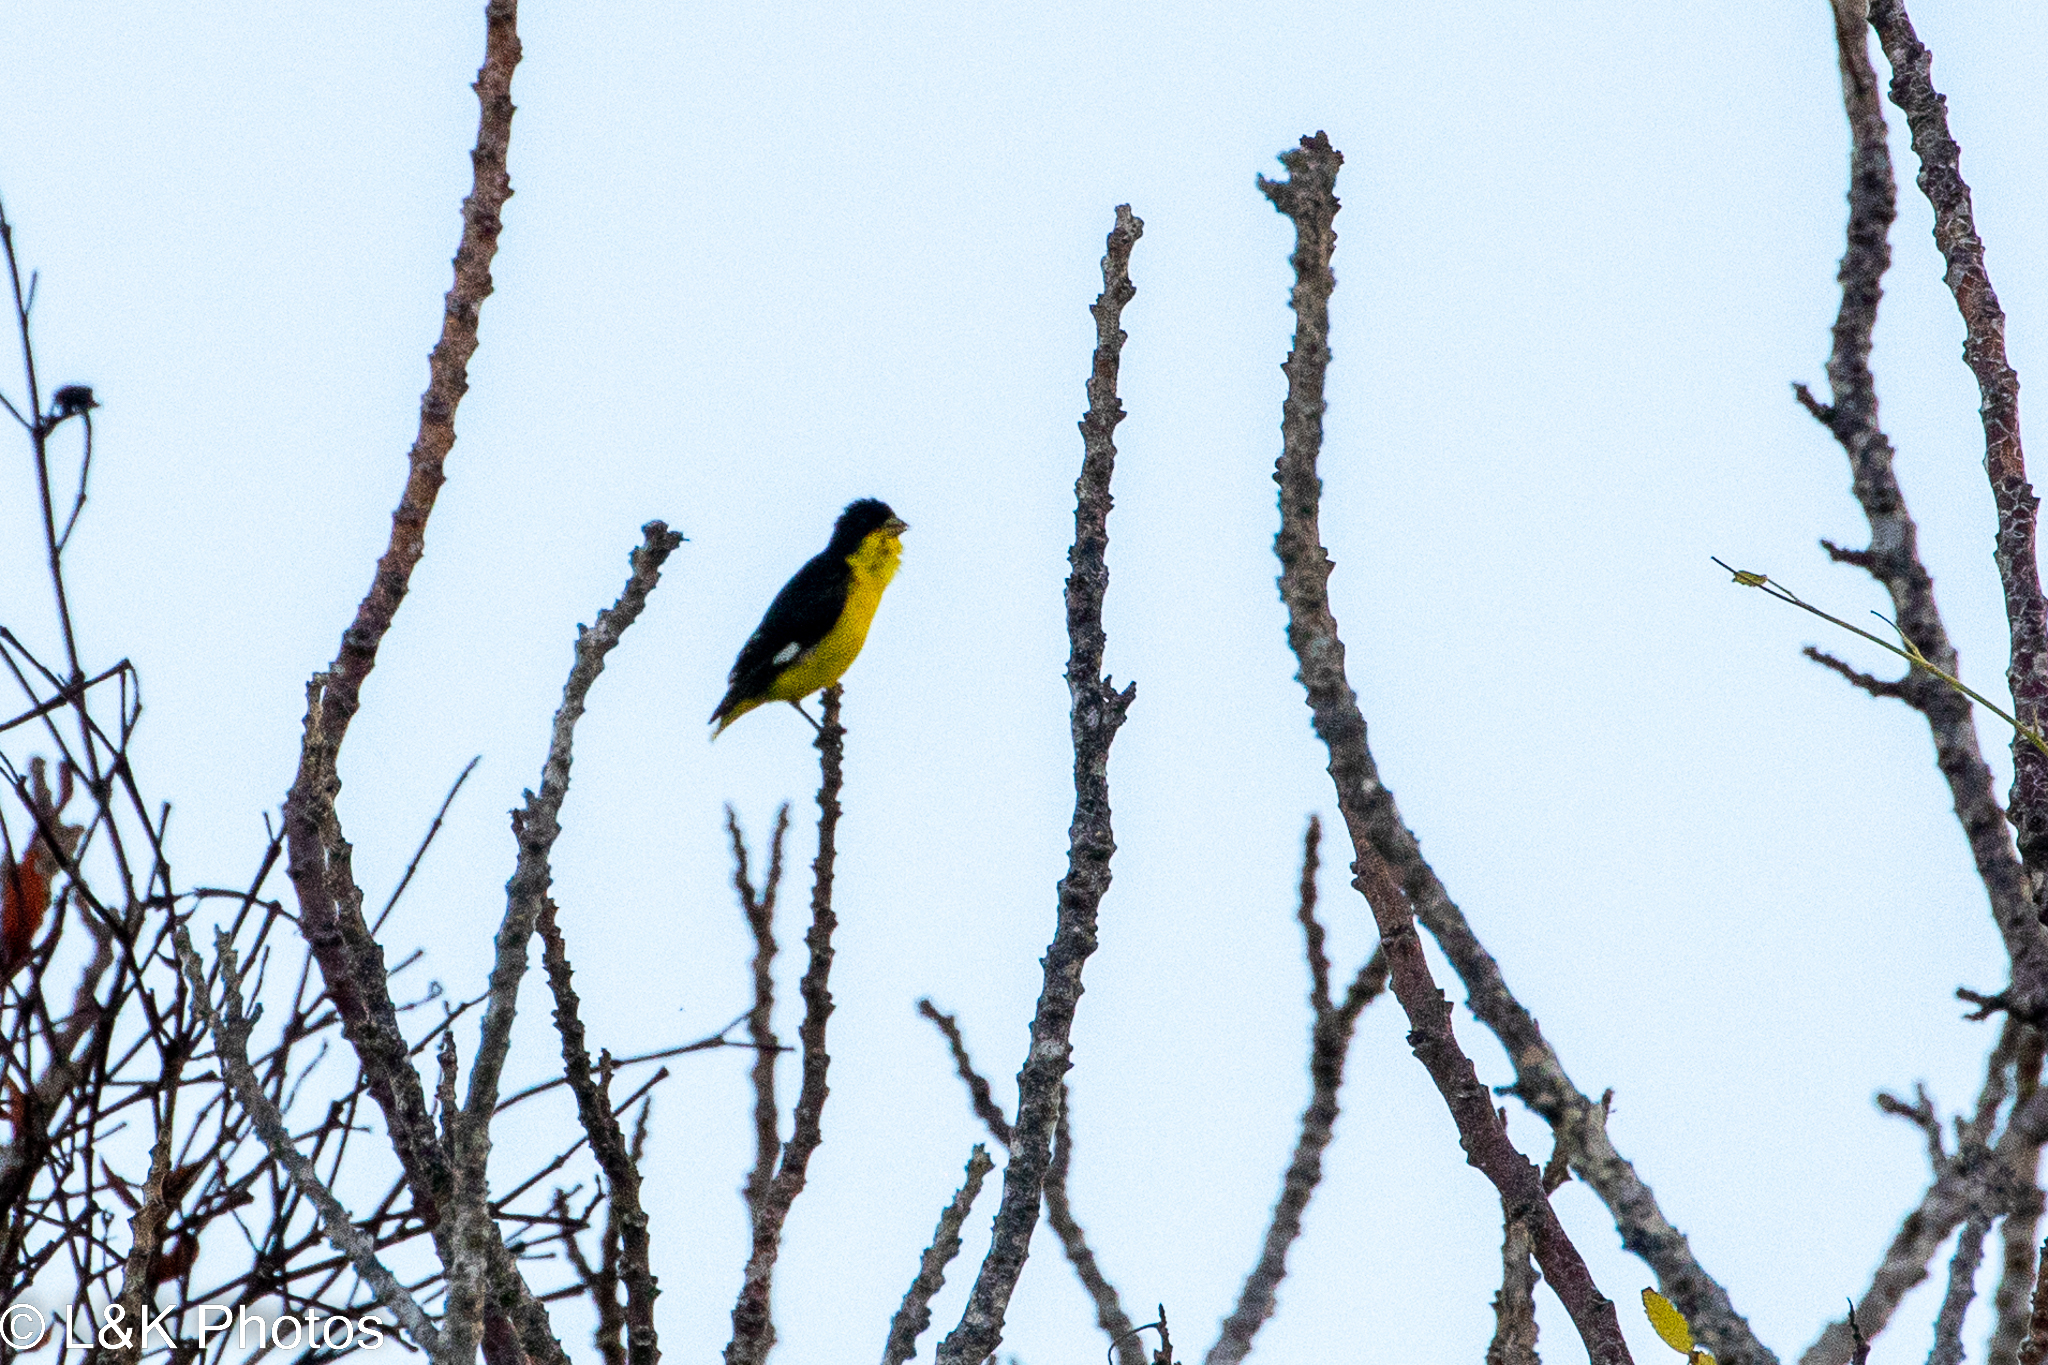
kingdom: Animalia
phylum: Chordata
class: Aves
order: Passeriformes
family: Fringillidae
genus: Spinus
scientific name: Spinus psaltria
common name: Lesser goldfinch
